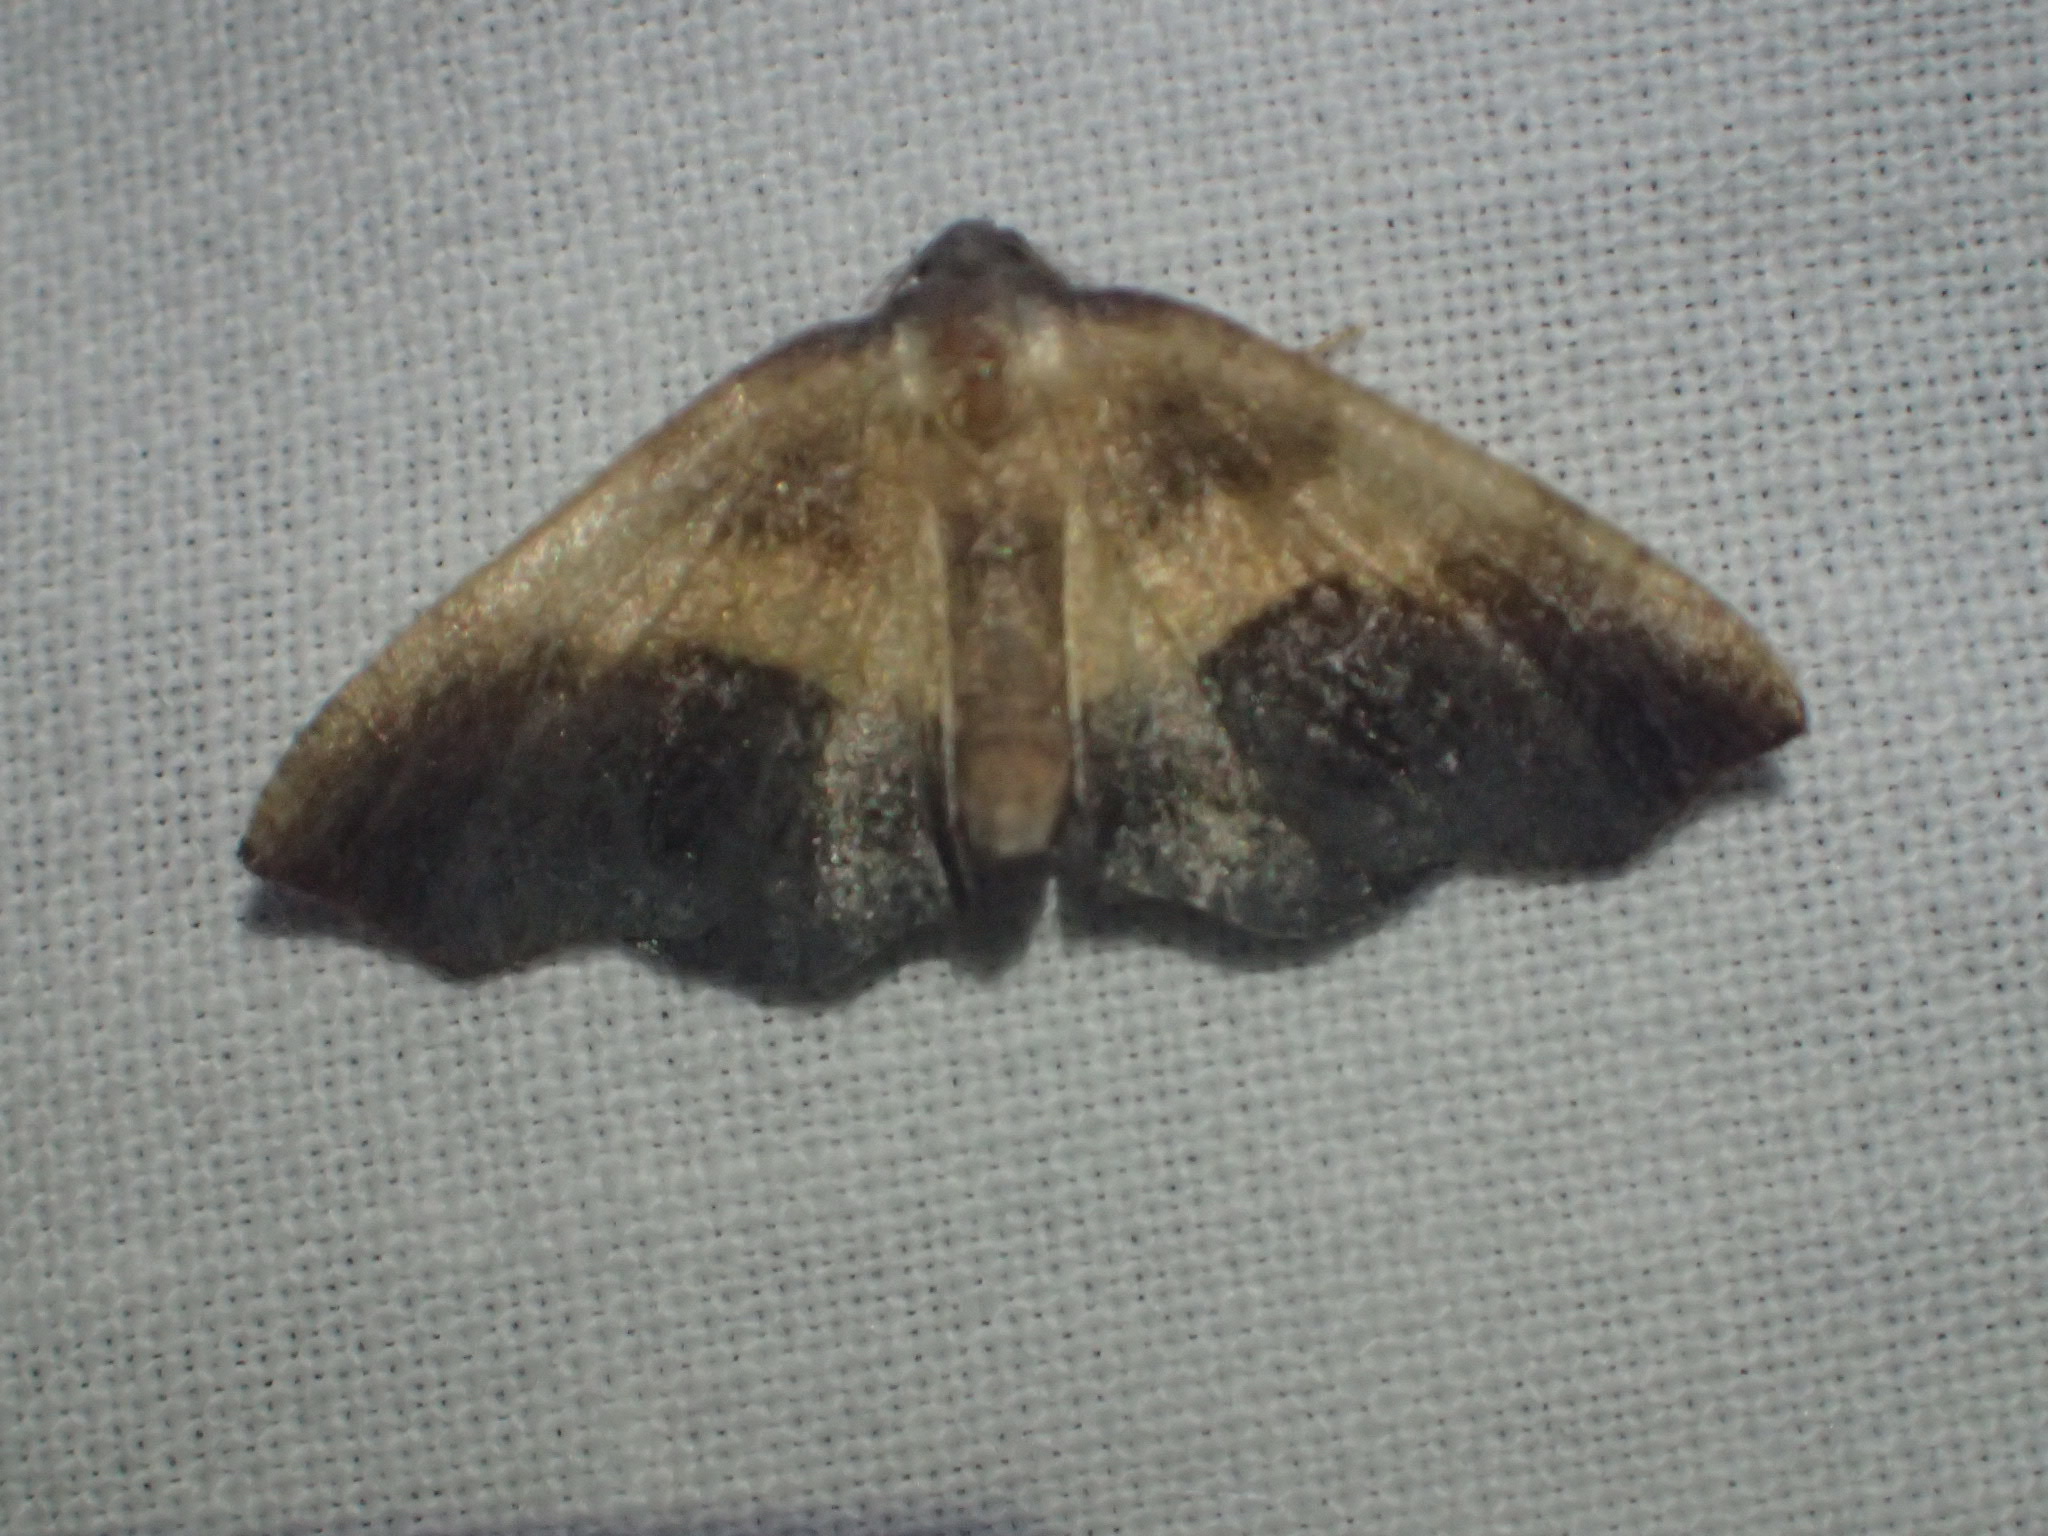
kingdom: Animalia
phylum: Arthropoda
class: Insecta
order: Lepidoptera
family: Geometridae
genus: Plagodis
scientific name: Plagodis kuetzingi
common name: Purple plagodis
